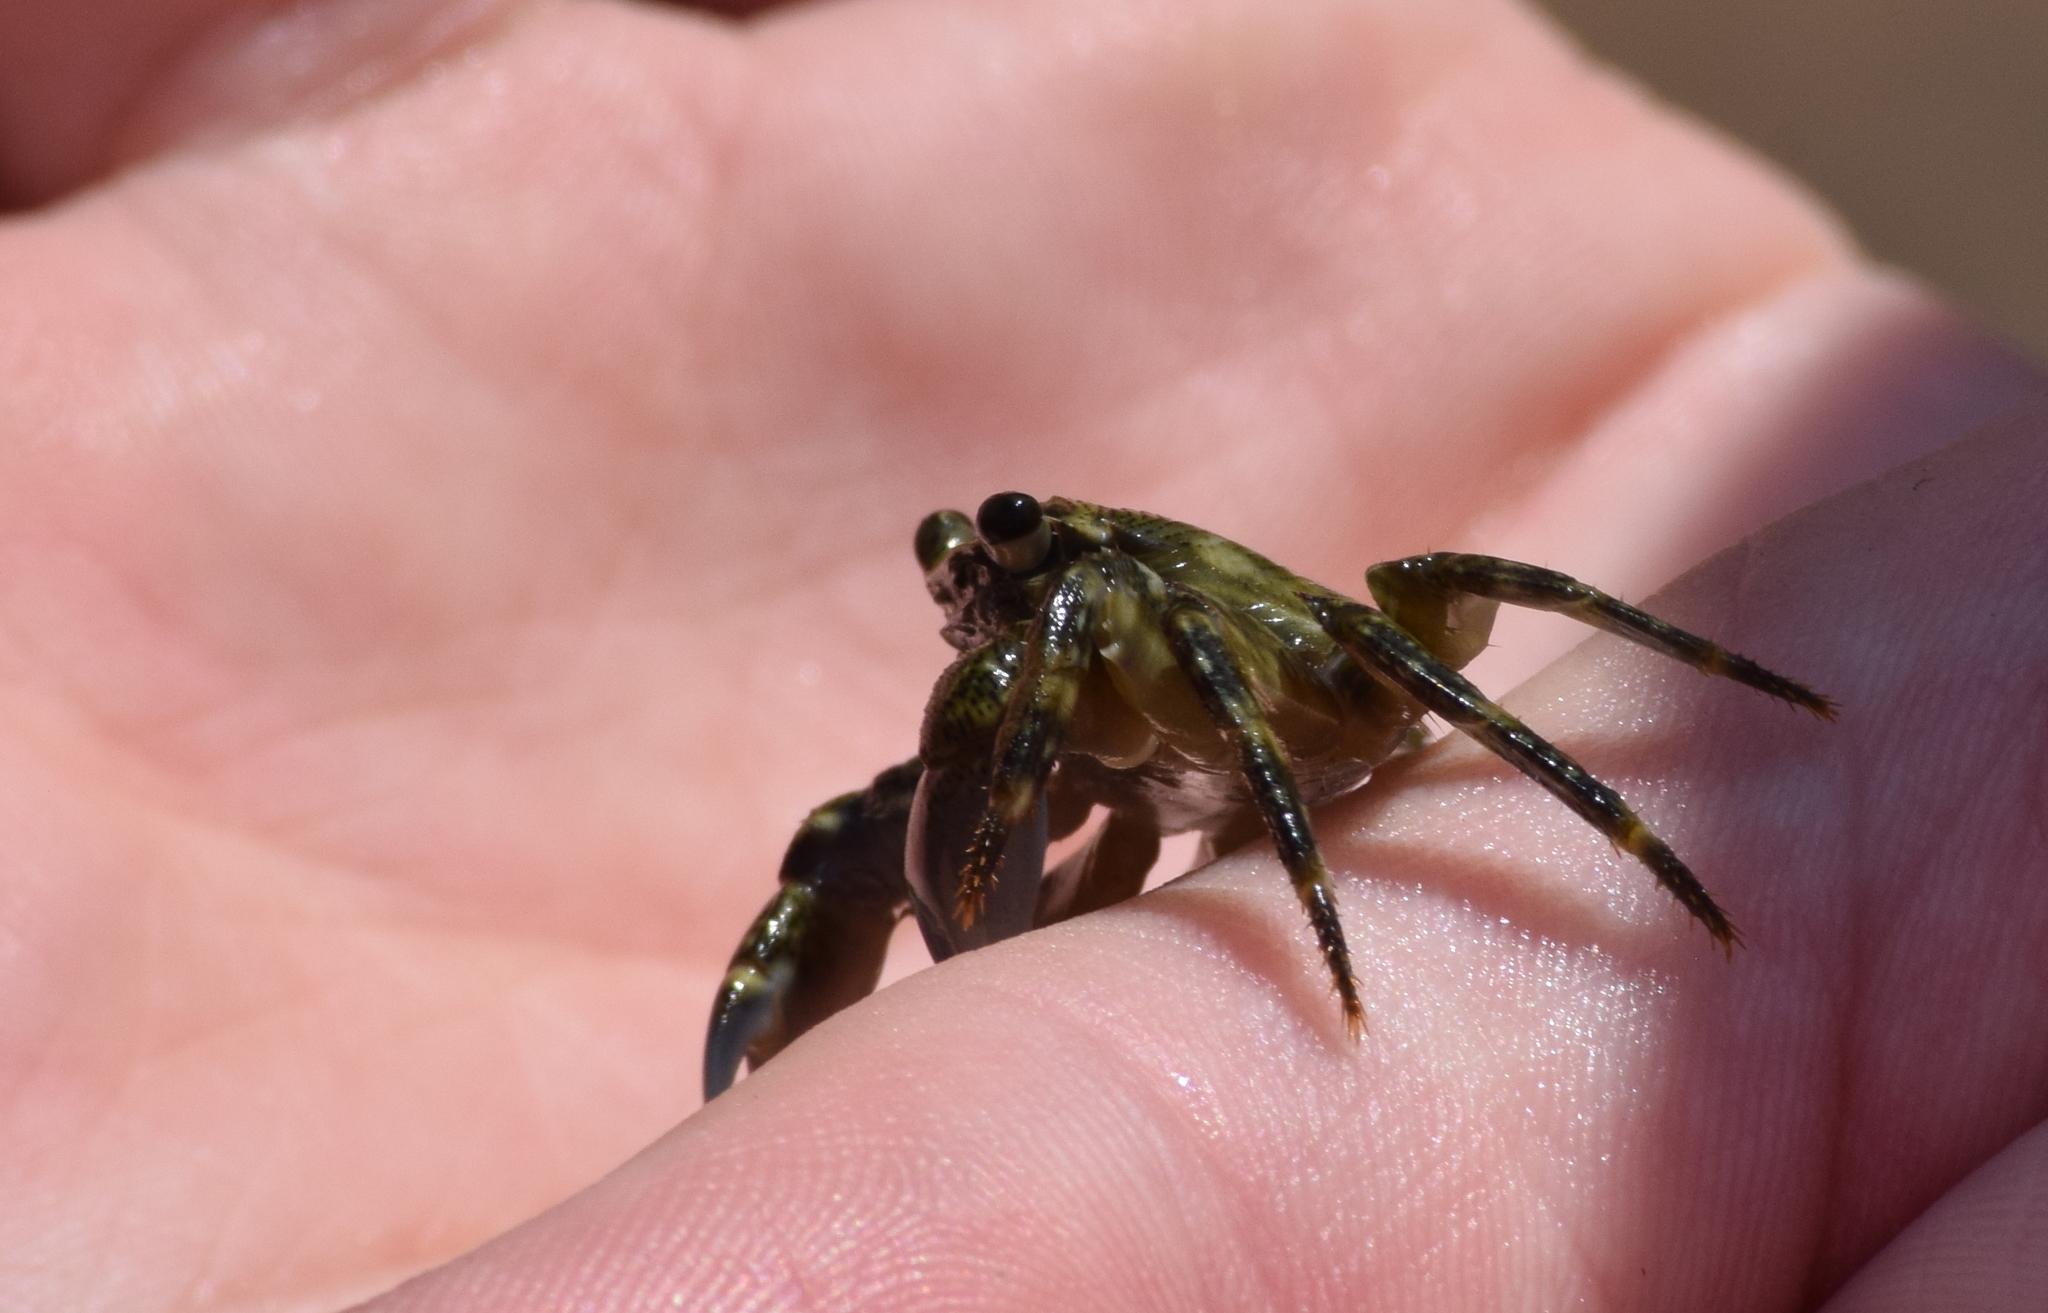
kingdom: Animalia
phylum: Arthropoda
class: Malacostraca
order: Decapoda
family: Grapsidae
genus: Pachygrapsus
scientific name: Pachygrapsus crassipes
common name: Striped shore crab
